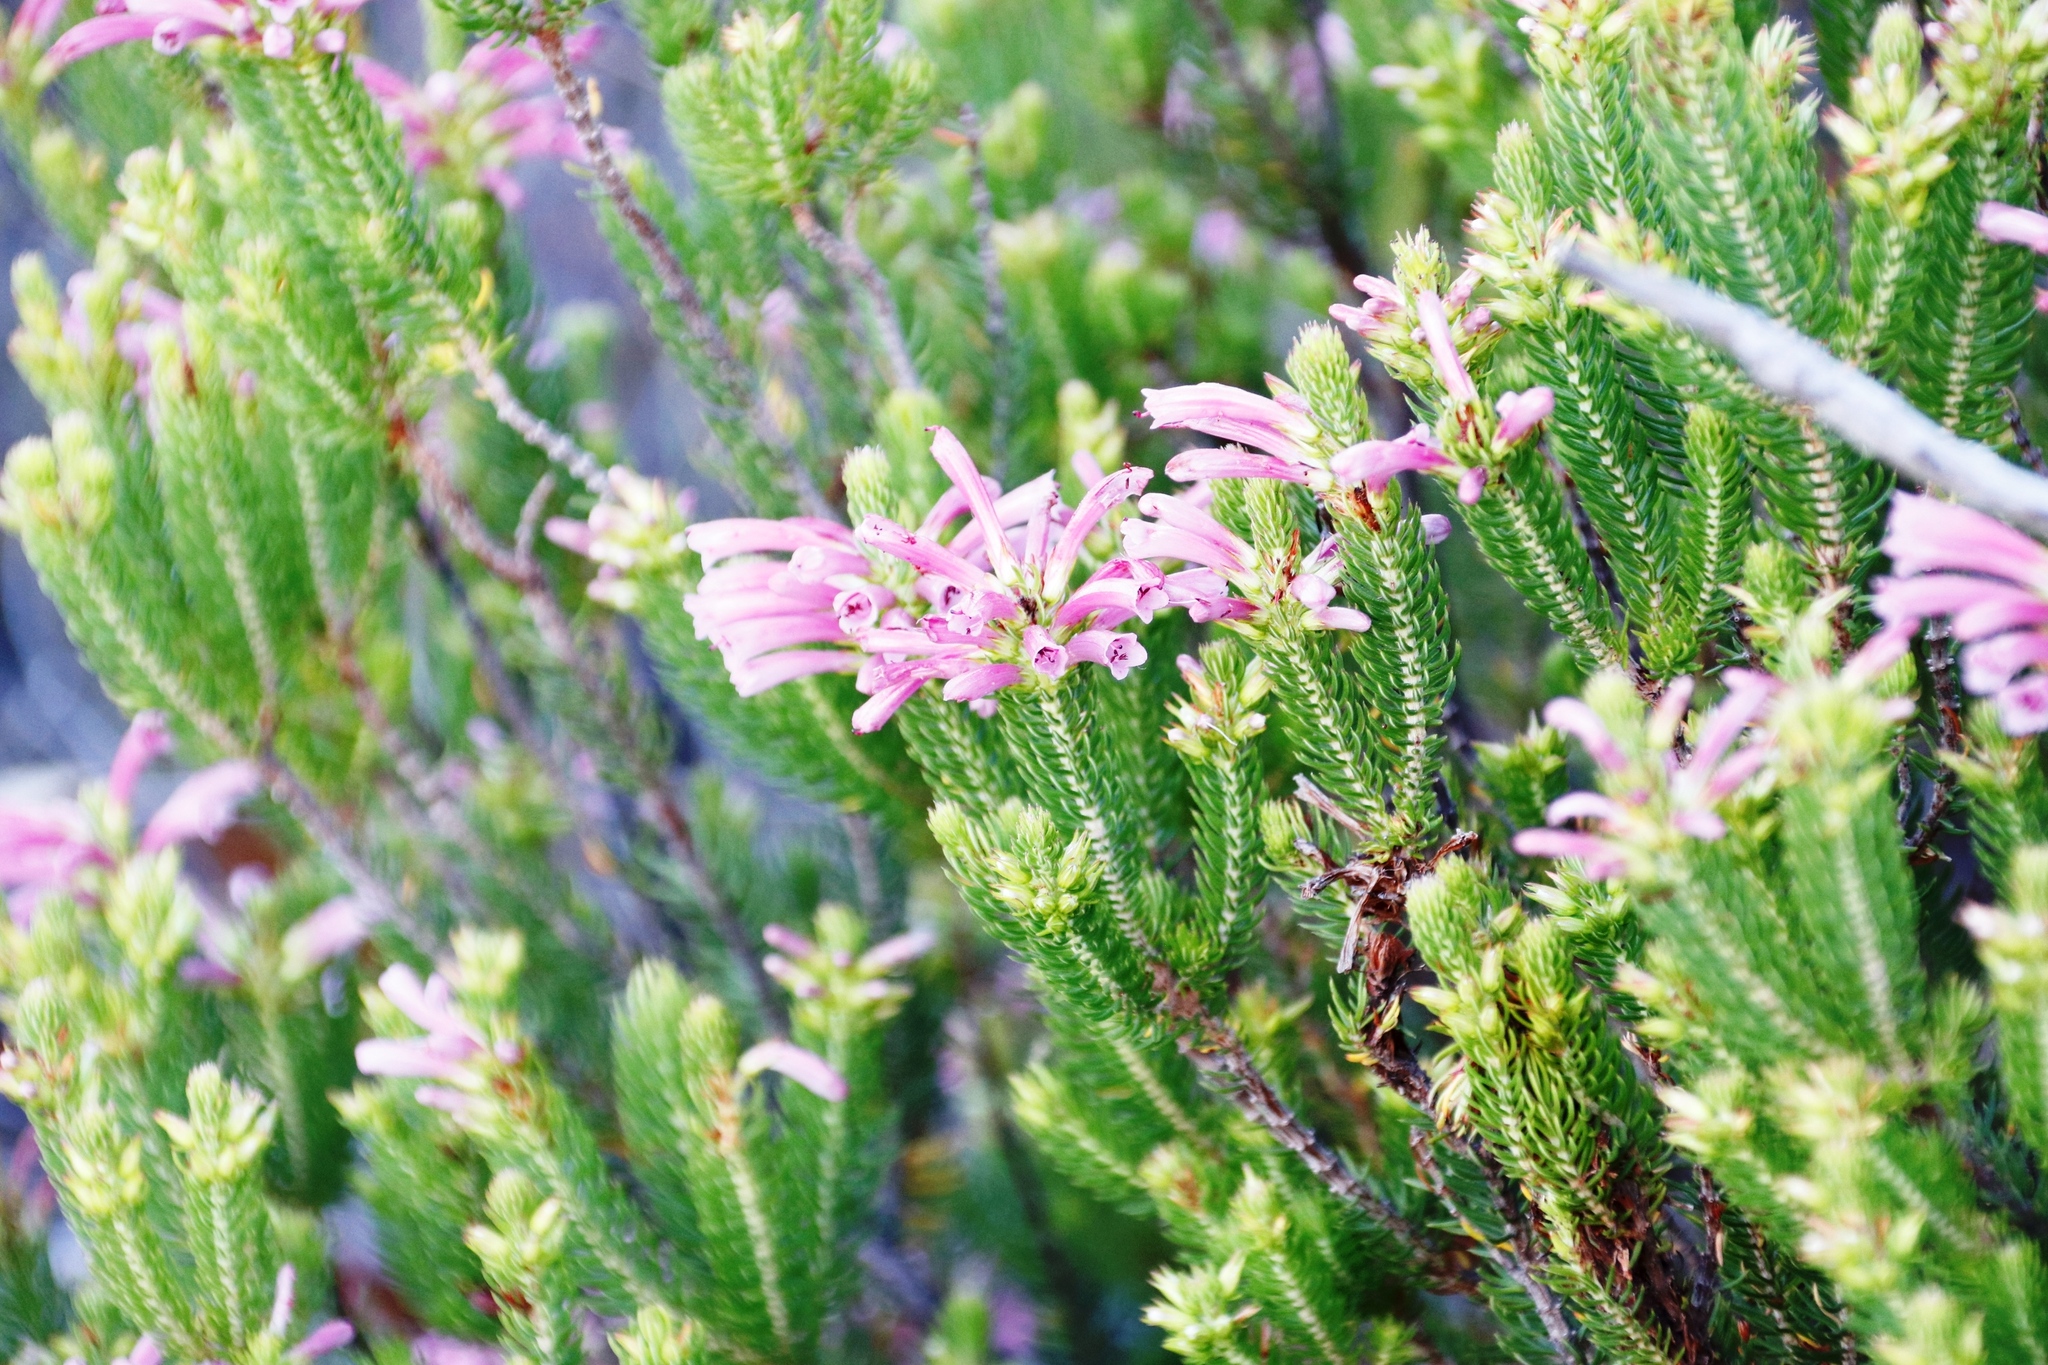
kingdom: Plantae
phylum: Tracheophyta
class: Magnoliopsida
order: Ericales
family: Ericaceae
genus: Erica
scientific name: Erica abietina
